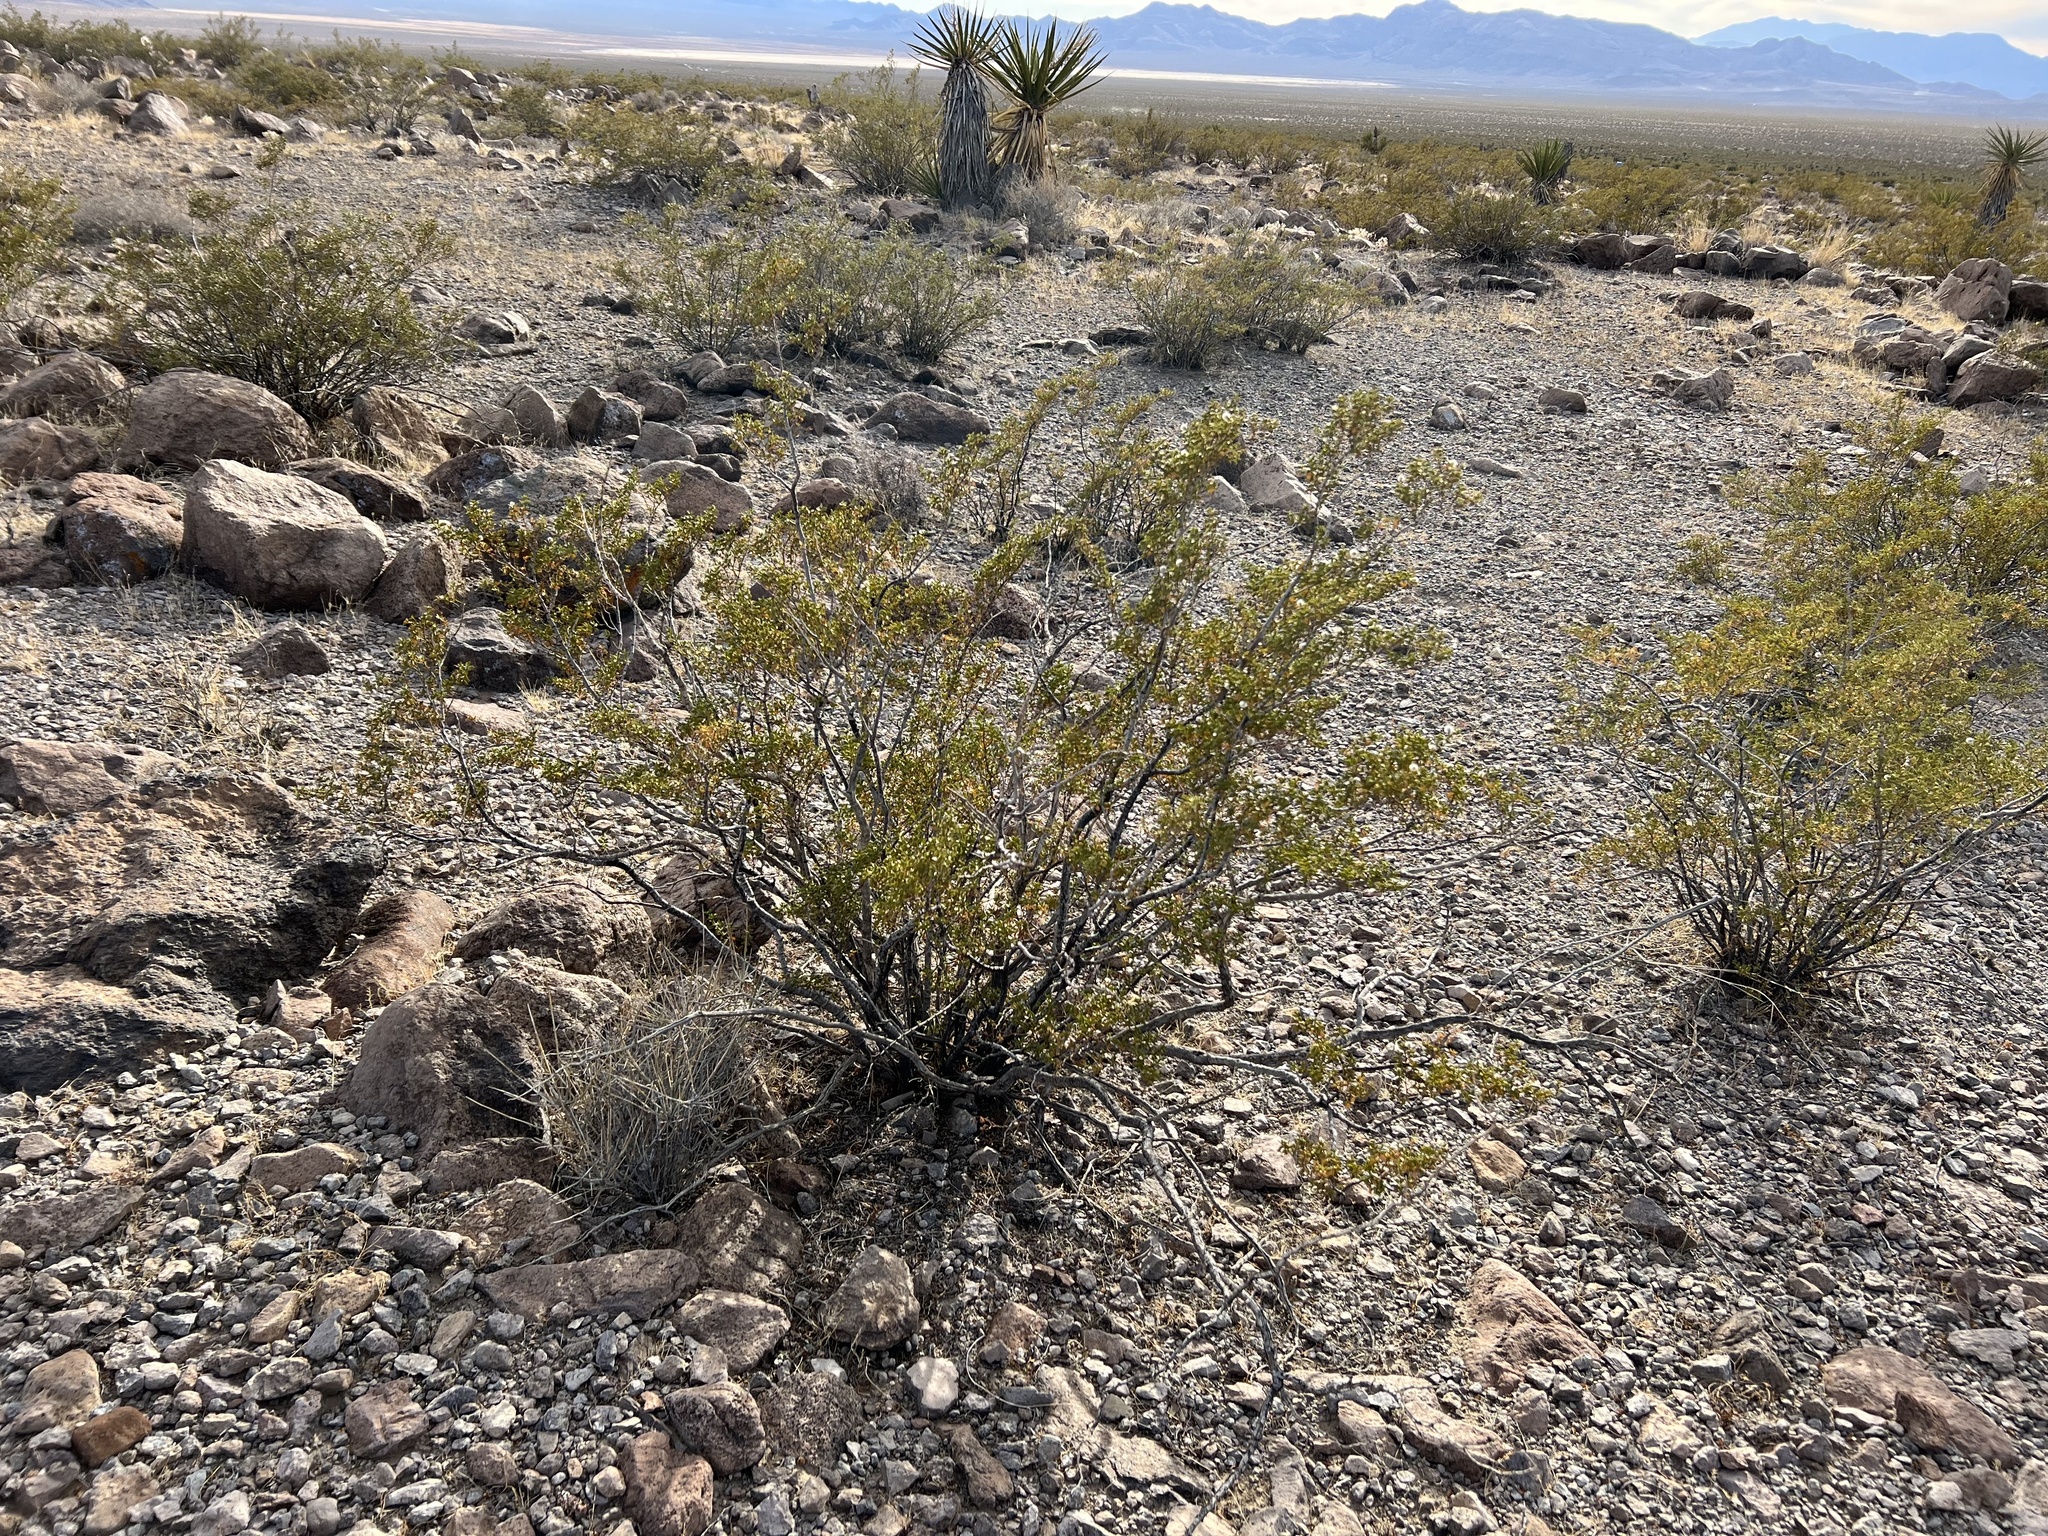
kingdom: Plantae
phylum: Tracheophyta
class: Magnoliopsida
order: Zygophyllales
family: Zygophyllaceae
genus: Larrea
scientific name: Larrea tridentata
